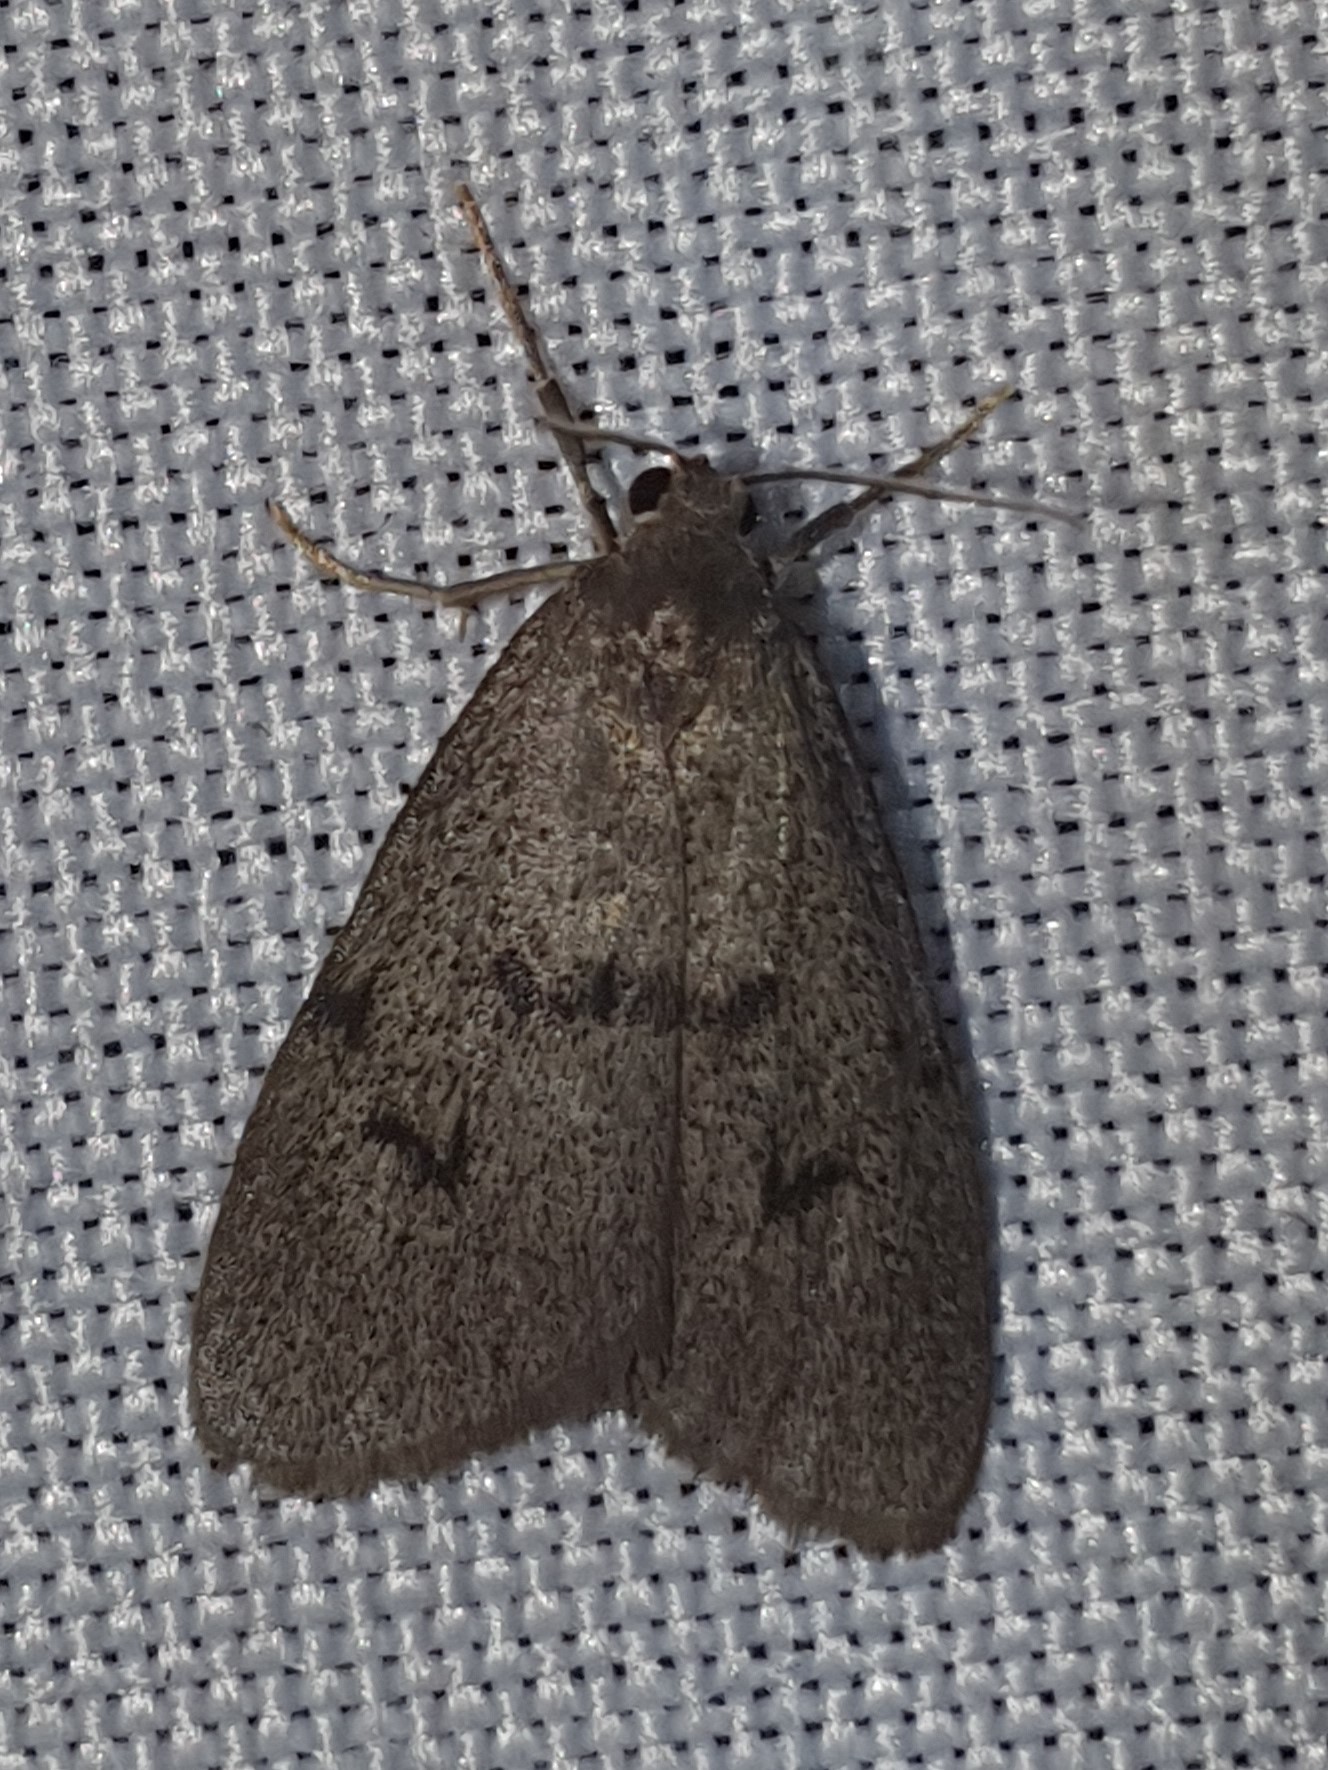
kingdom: Animalia
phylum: Arthropoda
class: Insecta
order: Lepidoptera
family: Erebidae
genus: Apaidia
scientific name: Apaidia mesogona
